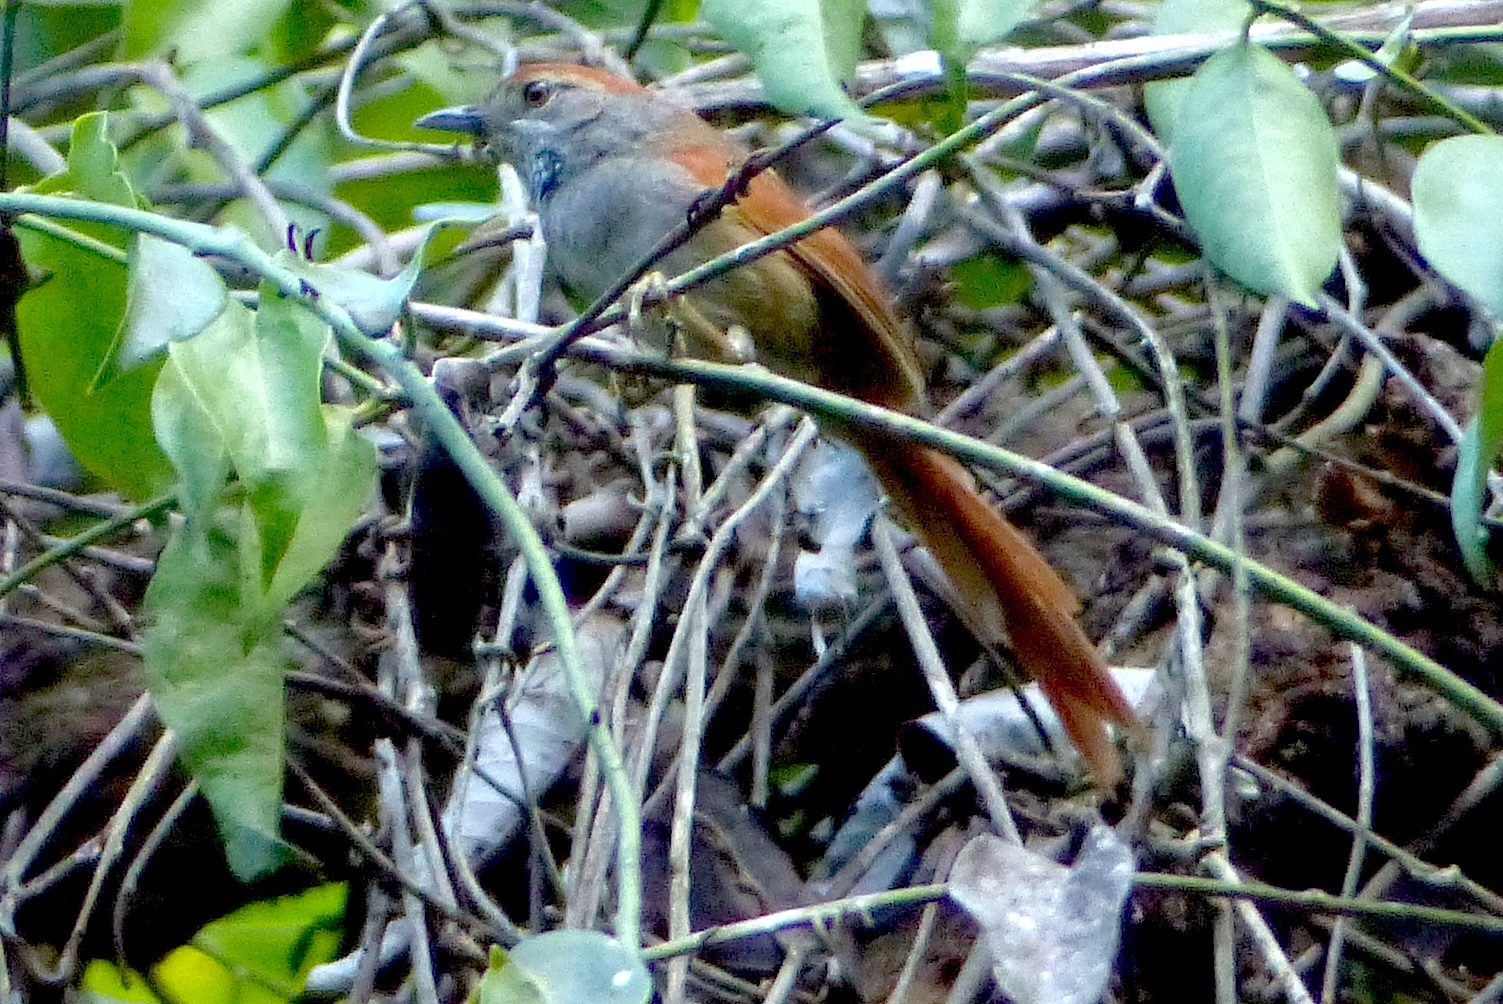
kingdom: Animalia
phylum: Chordata
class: Aves
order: Passeriformes
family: Furnariidae
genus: Synallaxis
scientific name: Synallaxis frontalis
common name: Sooty-fronted spinetail
